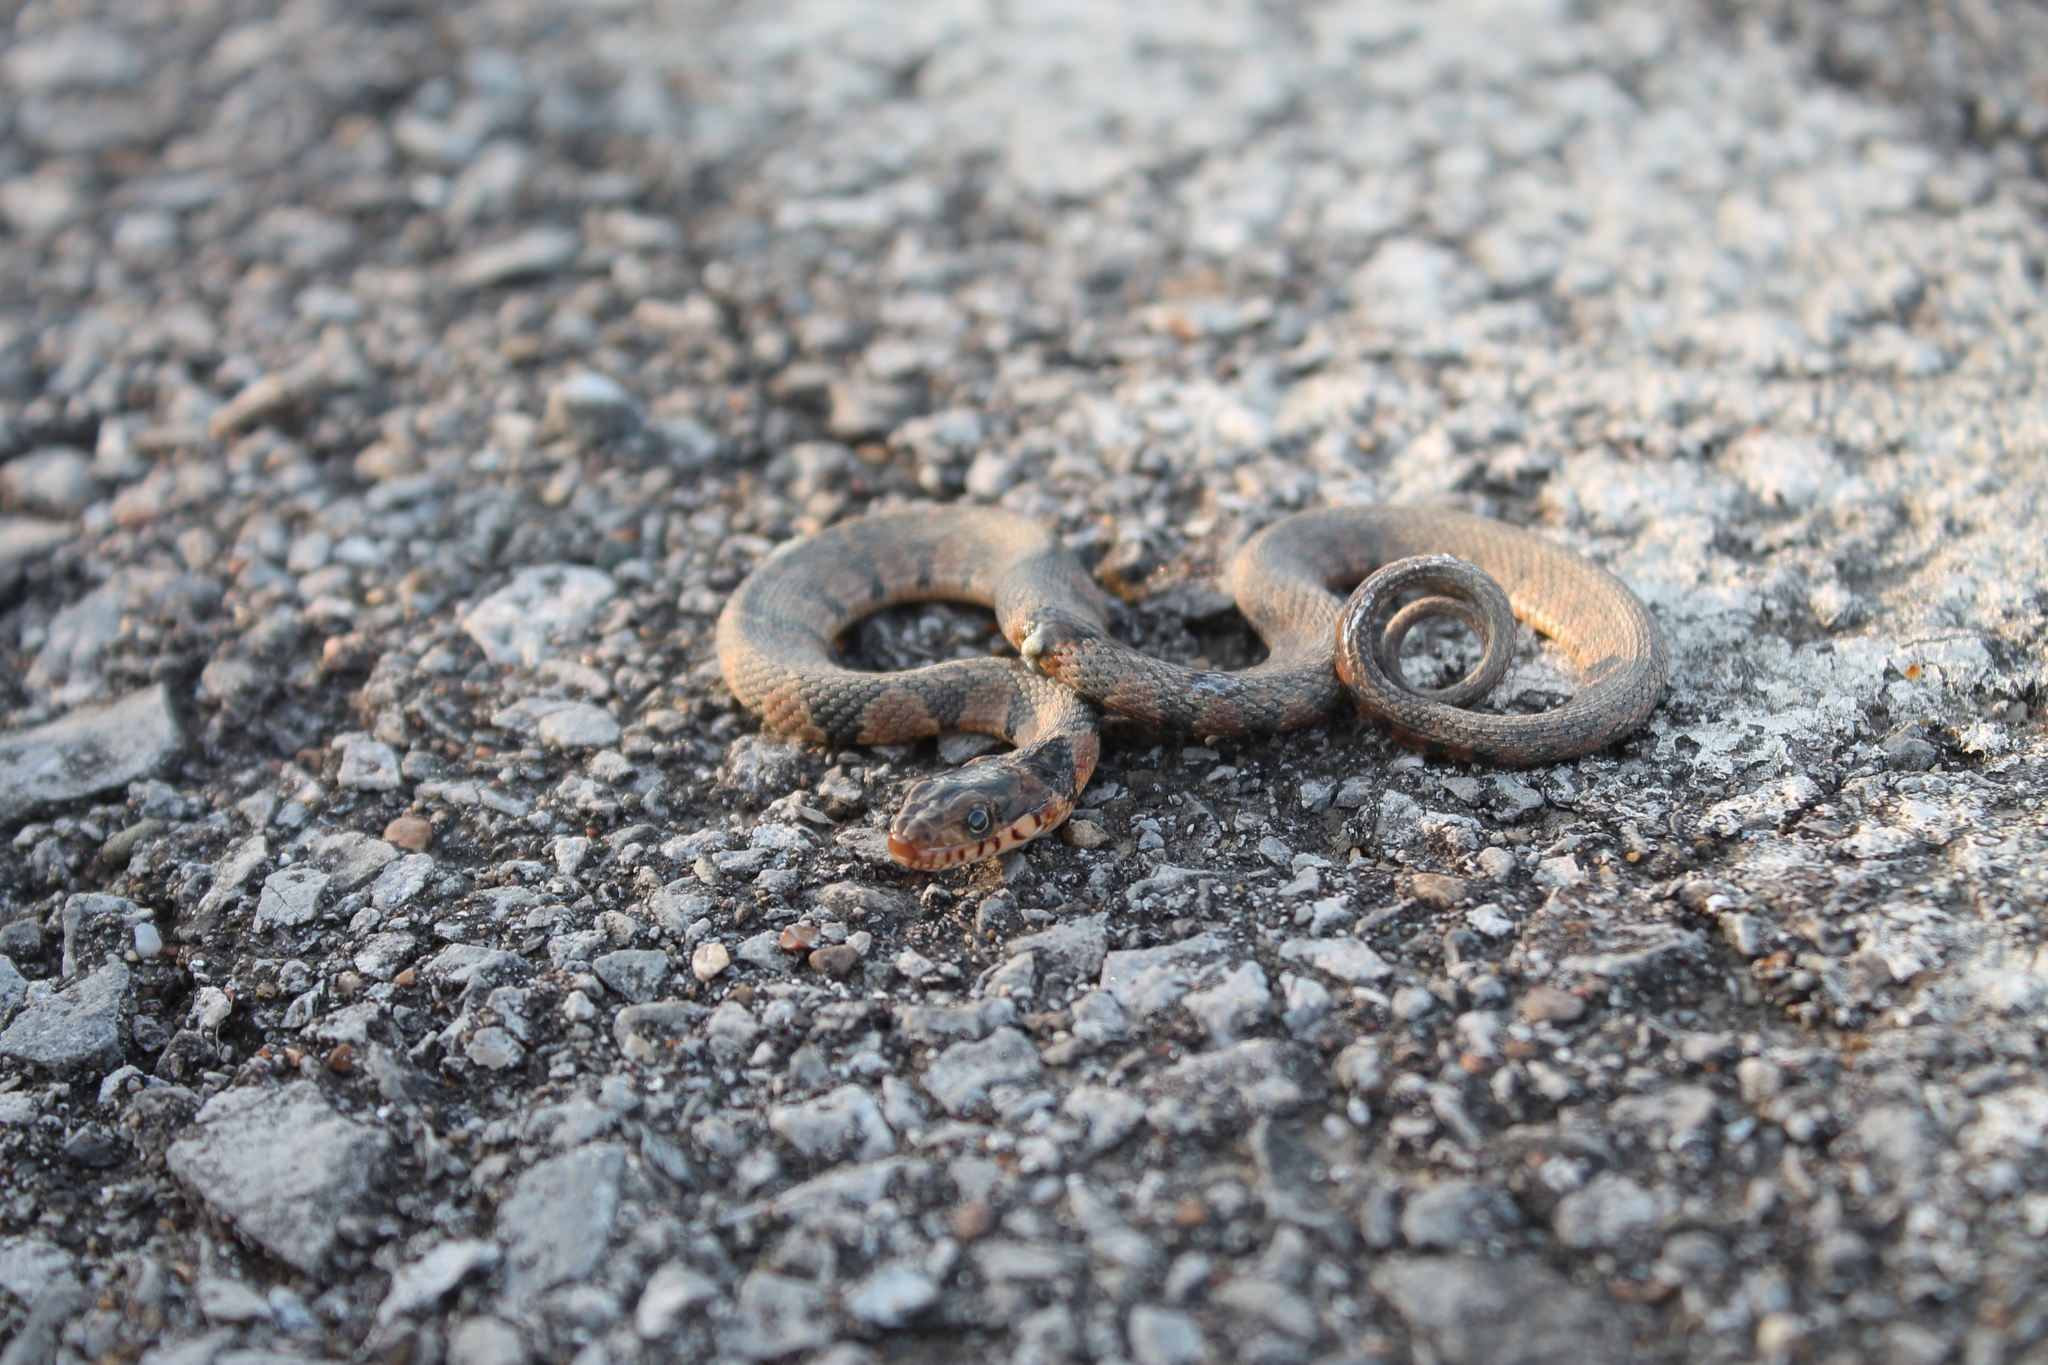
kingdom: Animalia
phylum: Chordata
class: Squamata
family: Colubridae
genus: Nerodia
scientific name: Nerodia erythrogaster
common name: Plainbelly water snake
